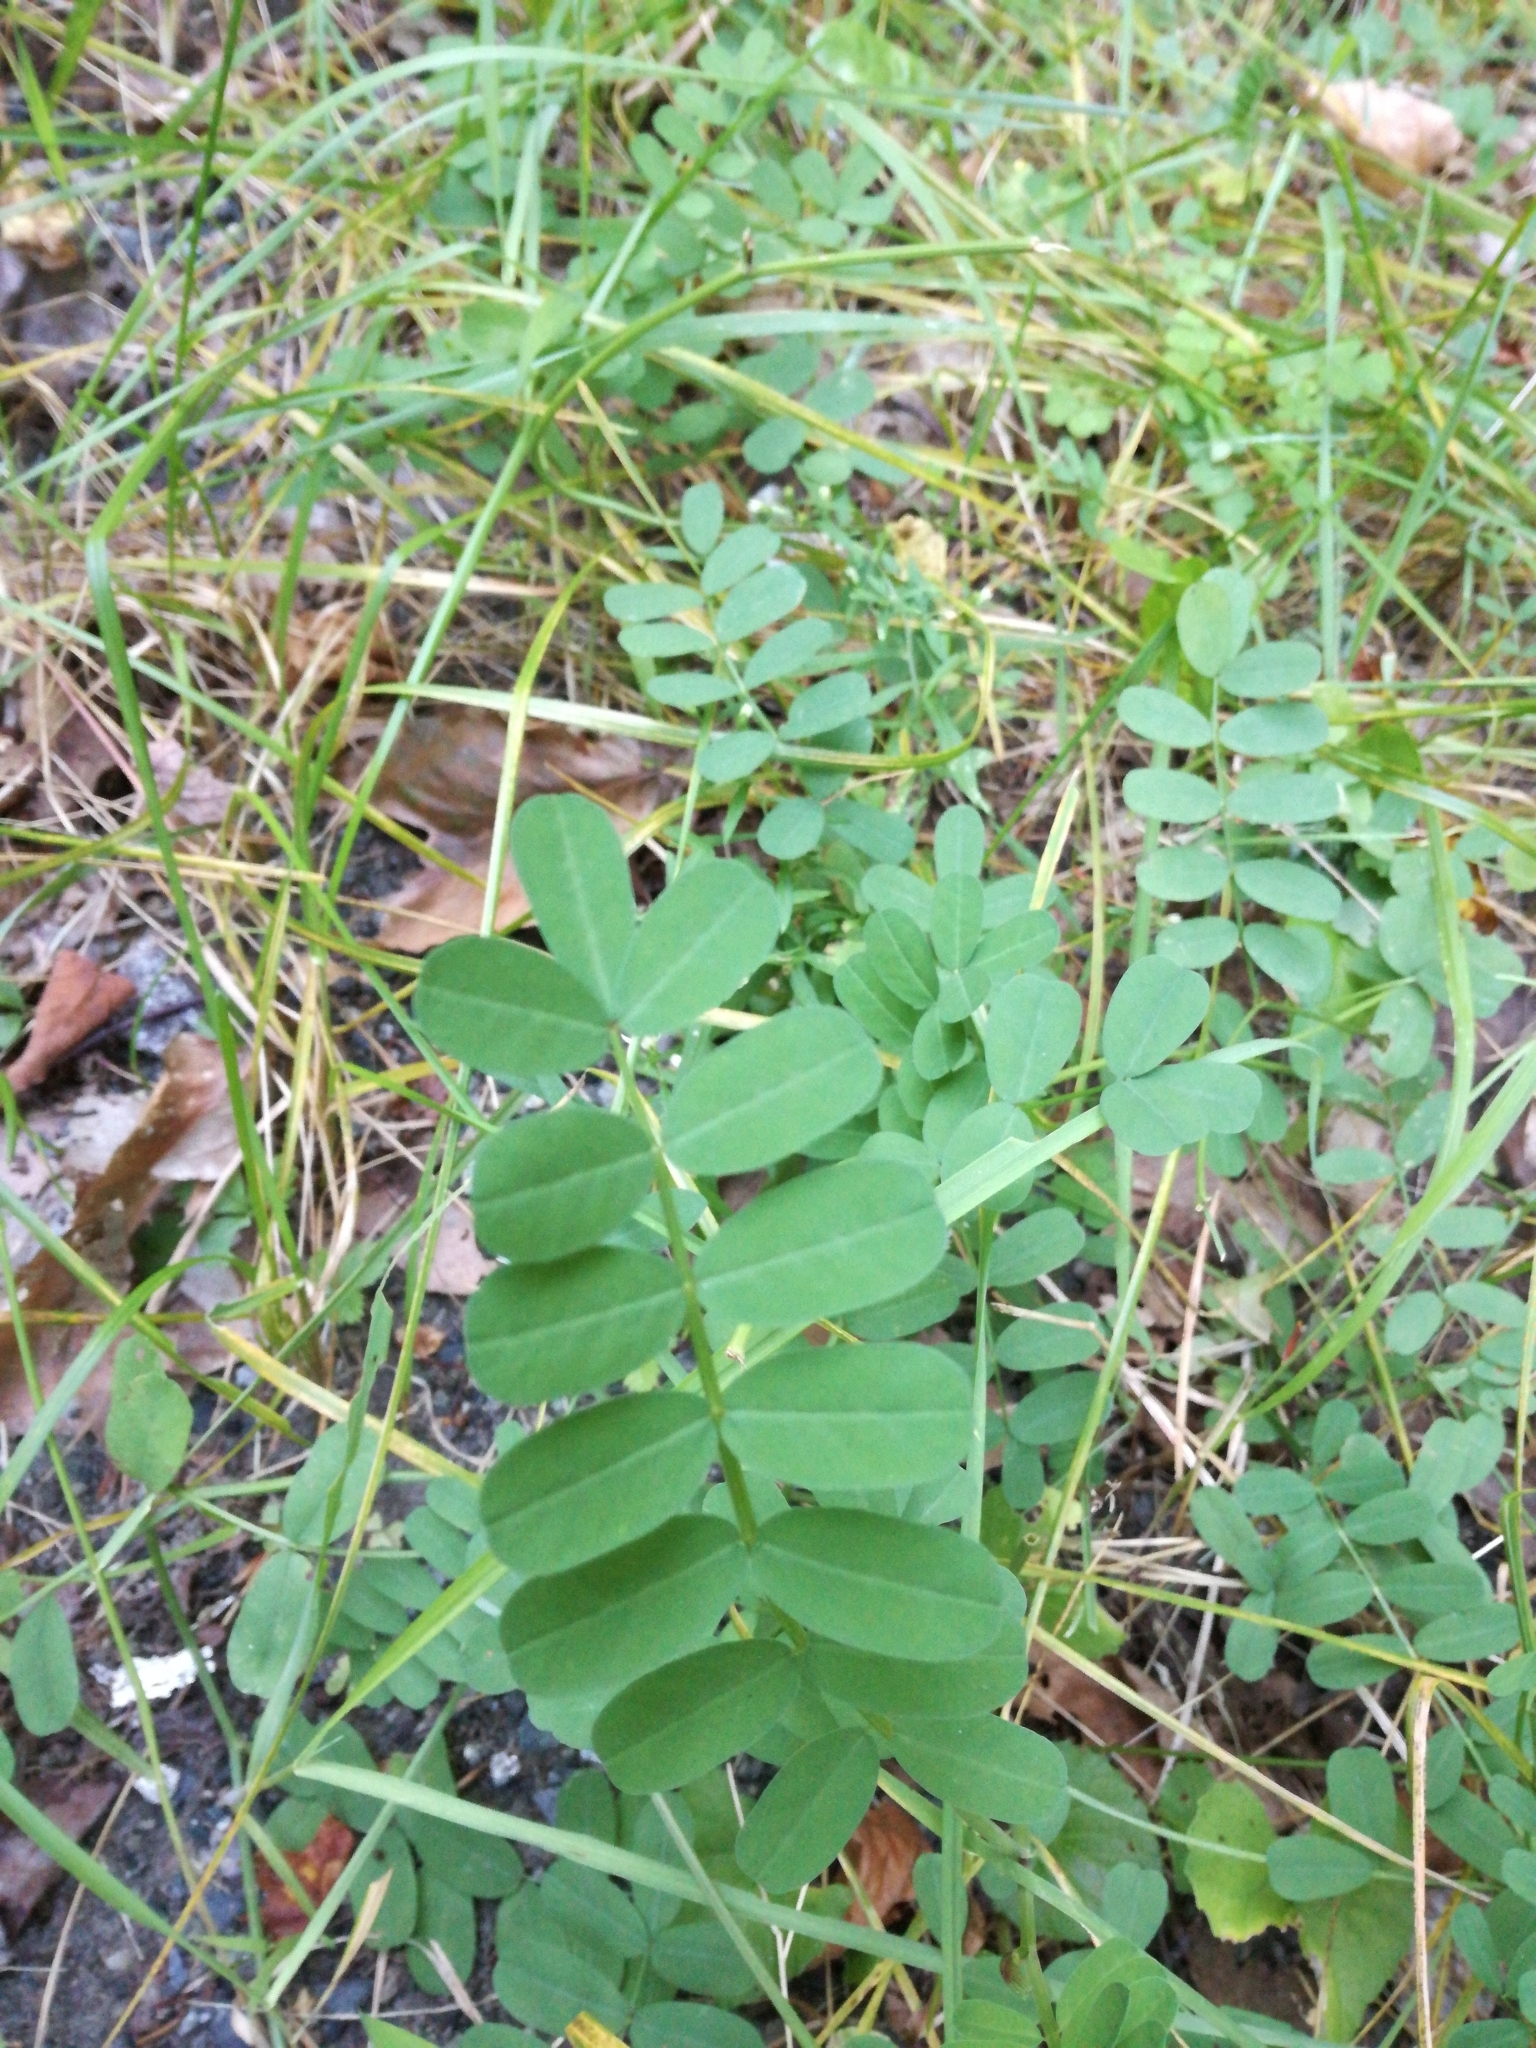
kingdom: Plantae
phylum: Tracheophyta
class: Magnoliopsida
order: Fabales
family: Fabaceae
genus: Coronilla
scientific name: Coronilla varia
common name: Crownvetch
